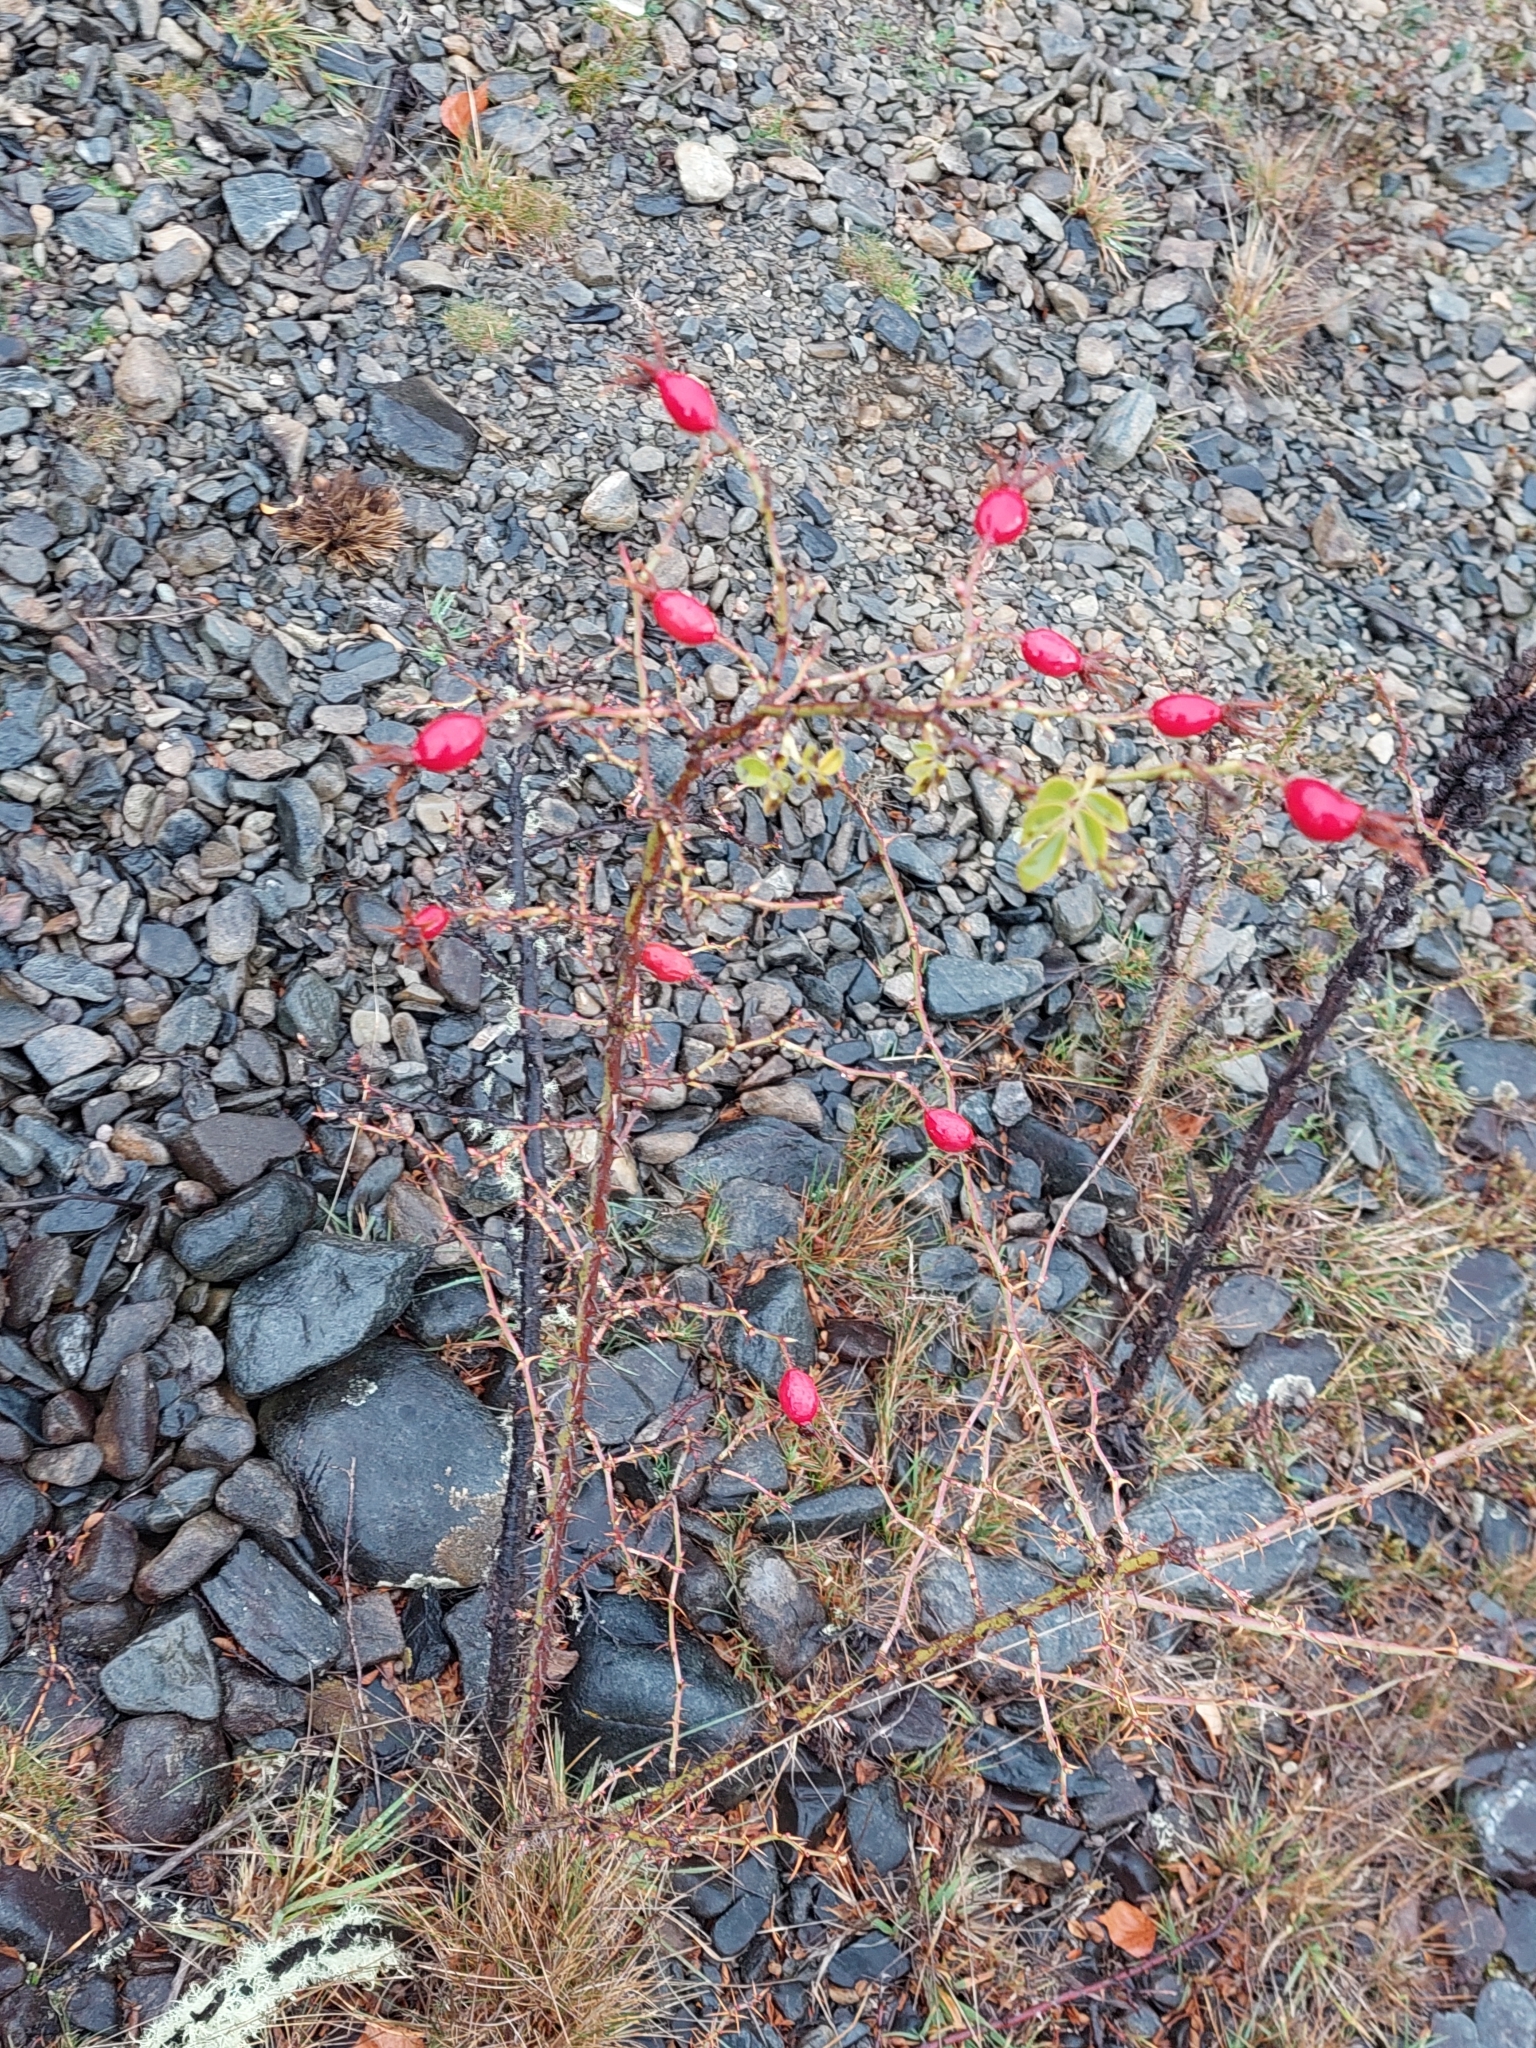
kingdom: Plantae
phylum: Tracheophyta
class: Magnoliopsida
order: Rosales
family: Rosaceae
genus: Rosa
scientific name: Rosa rubiginosa
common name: Sweet-briar
